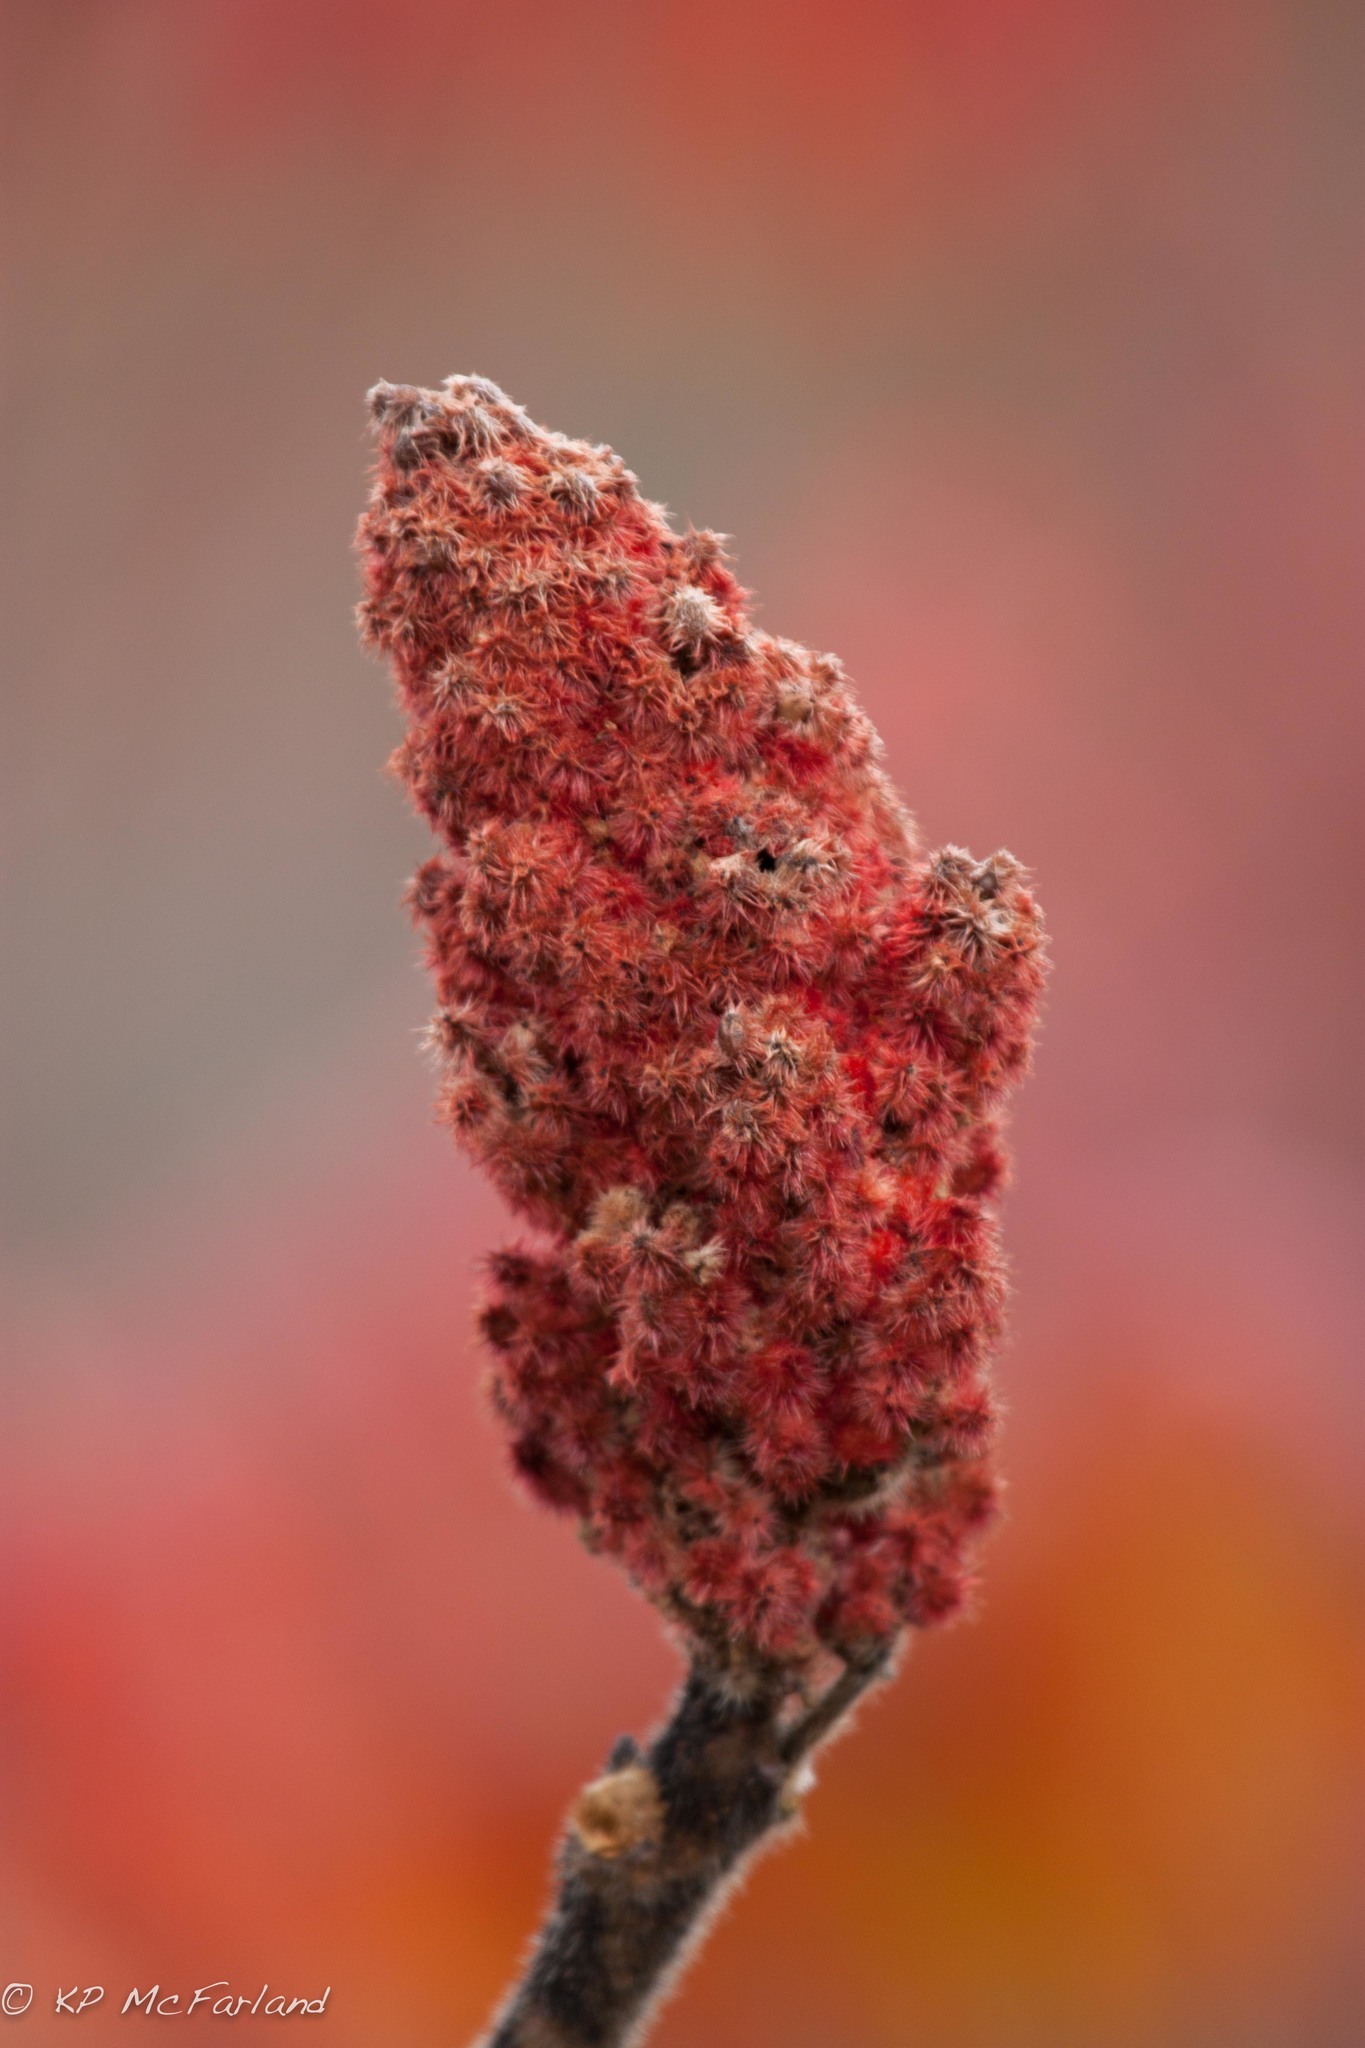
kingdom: Plantae
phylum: Tracheophyta
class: Magnoliopsida
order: Sapindales
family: Anacardiaceae
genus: Rhus
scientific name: Rhus typhina
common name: Staghorn sumac
